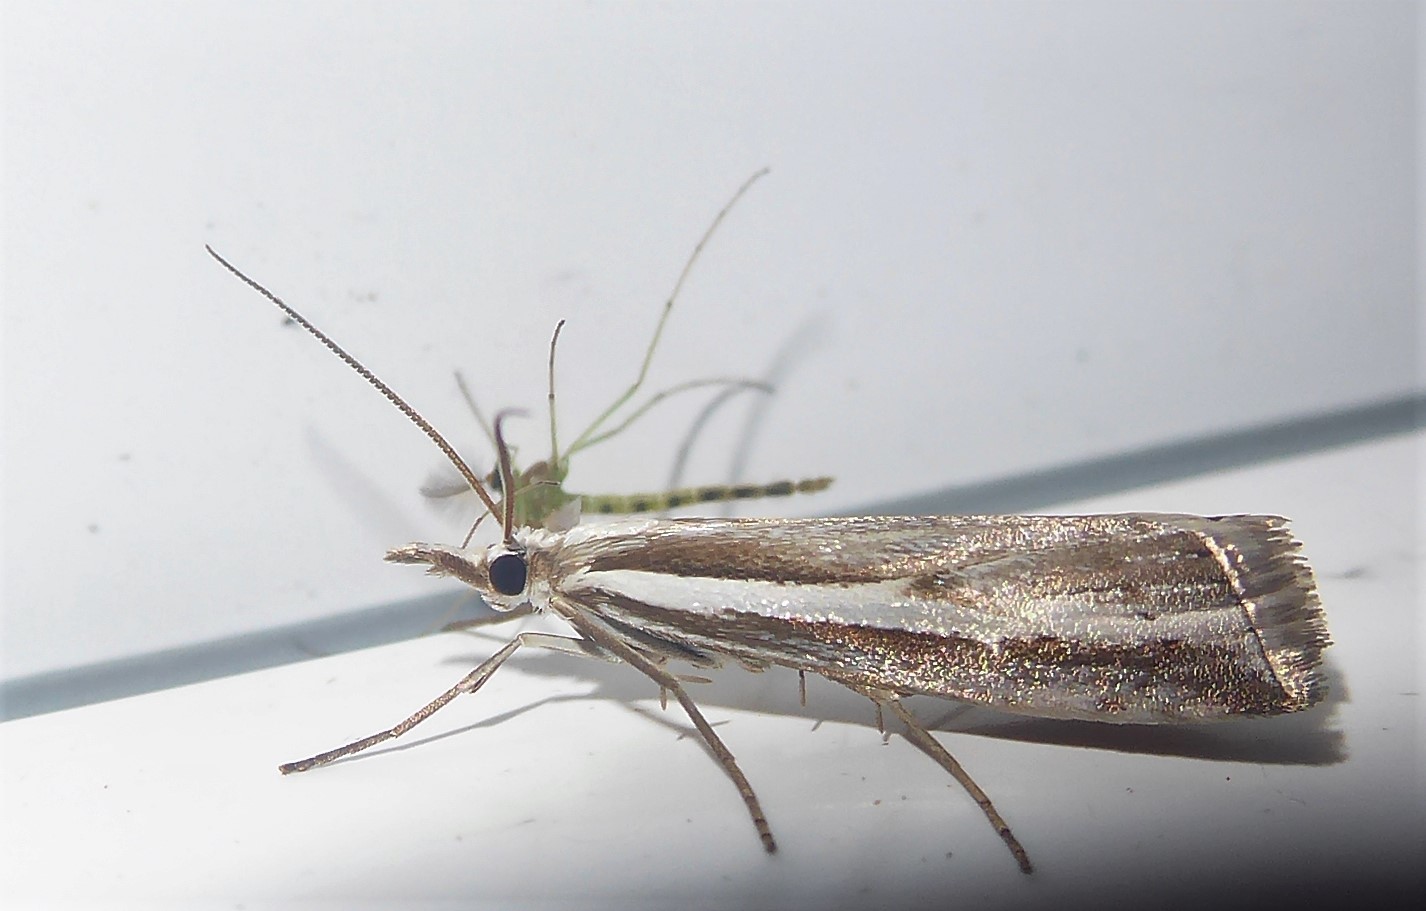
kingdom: Animalia
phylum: Arthropoda
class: Insecta
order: Lepidoptera
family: Crambidae
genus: Orocrambus
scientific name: Orocrambus vittellus
